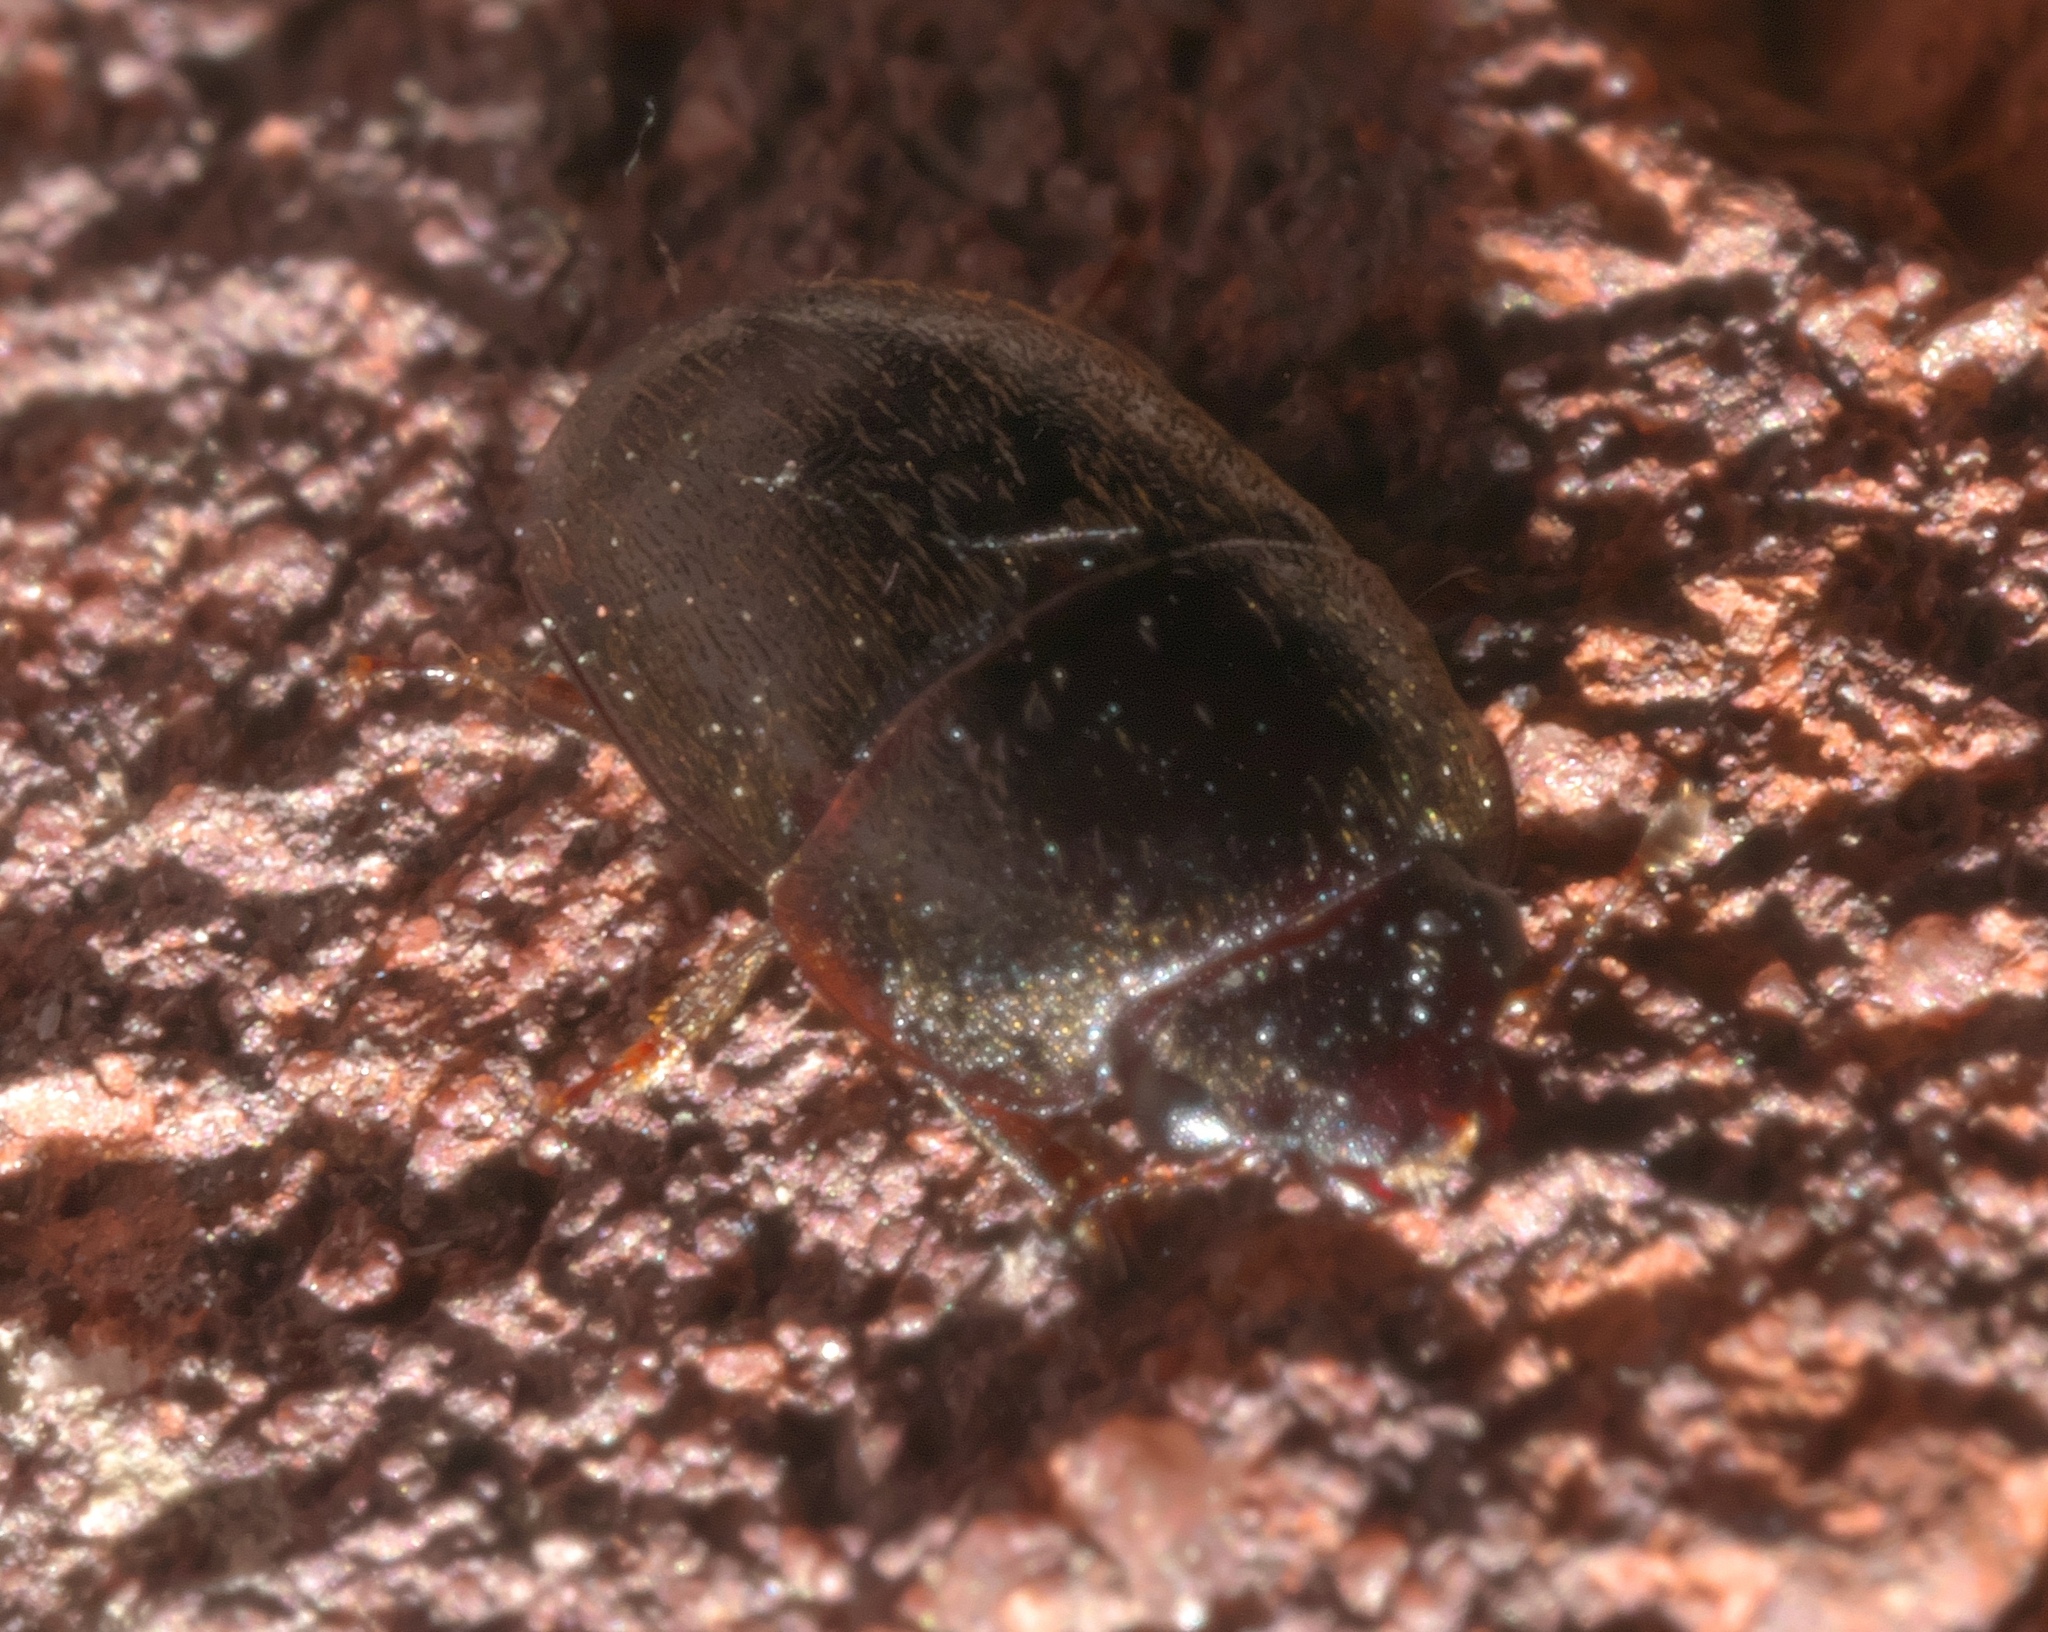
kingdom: Animalia
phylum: Arthropoda
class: Insecta
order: Coleoptera
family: Nitidulidae
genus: Cryptarcha
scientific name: Cryptarcha ampla
